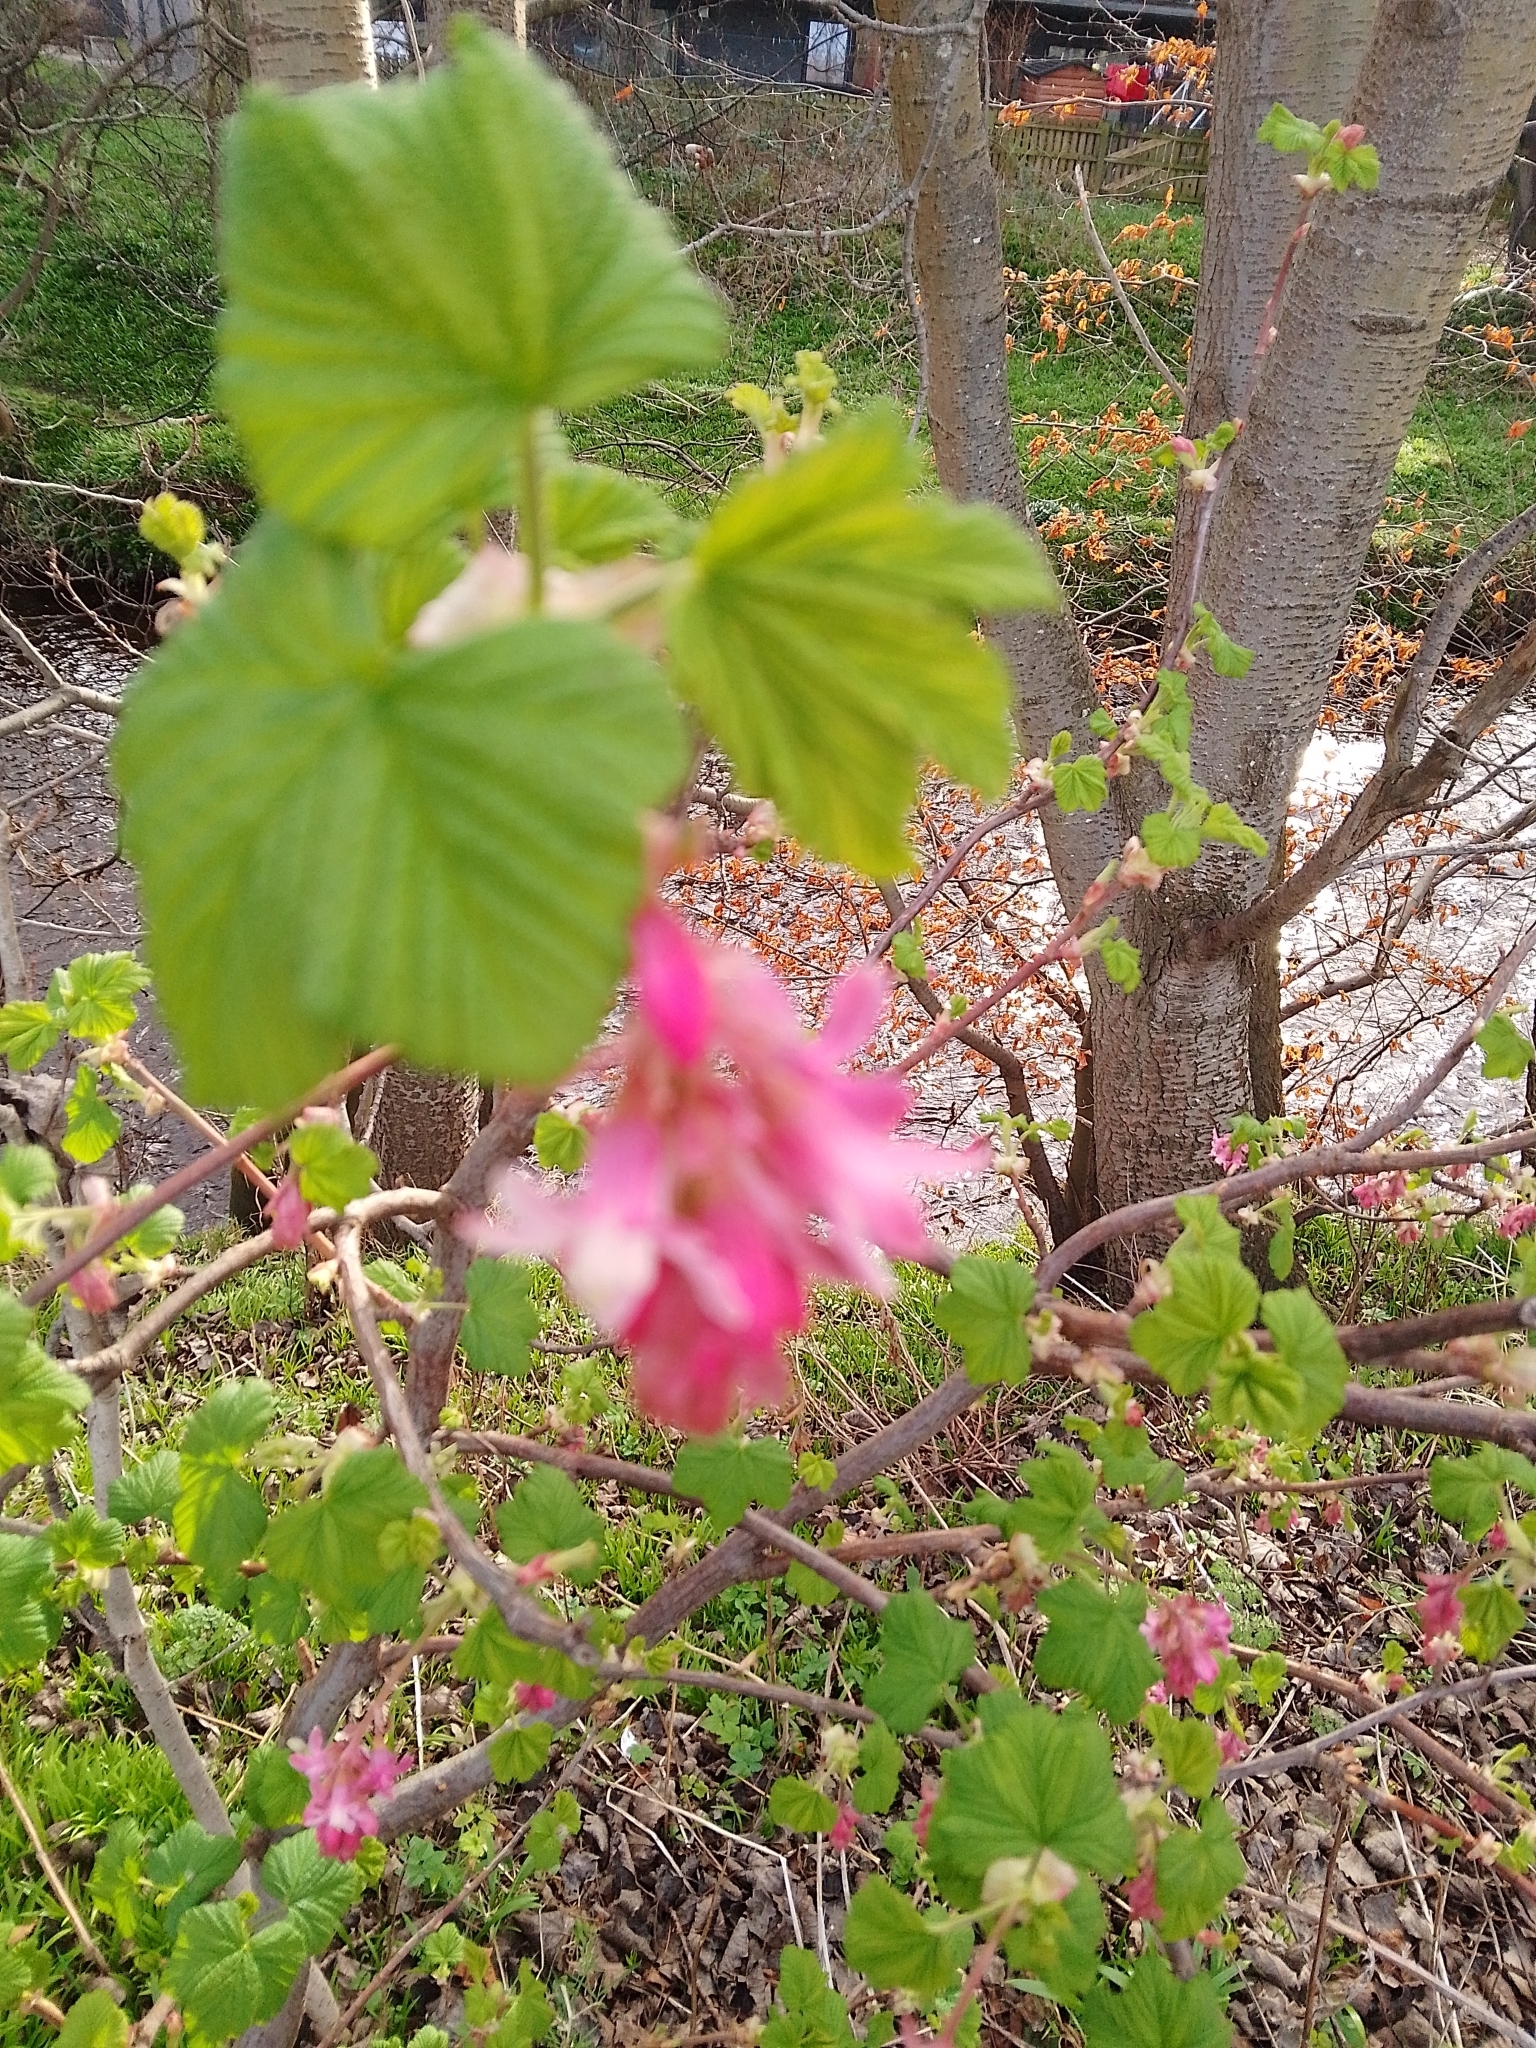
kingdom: Plantae
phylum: Tracheophyta
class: Magnoliopsida
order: Saxifragales
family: Grossulariaceae
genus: Ribes
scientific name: Ribes sanguineum
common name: Flowering currant
